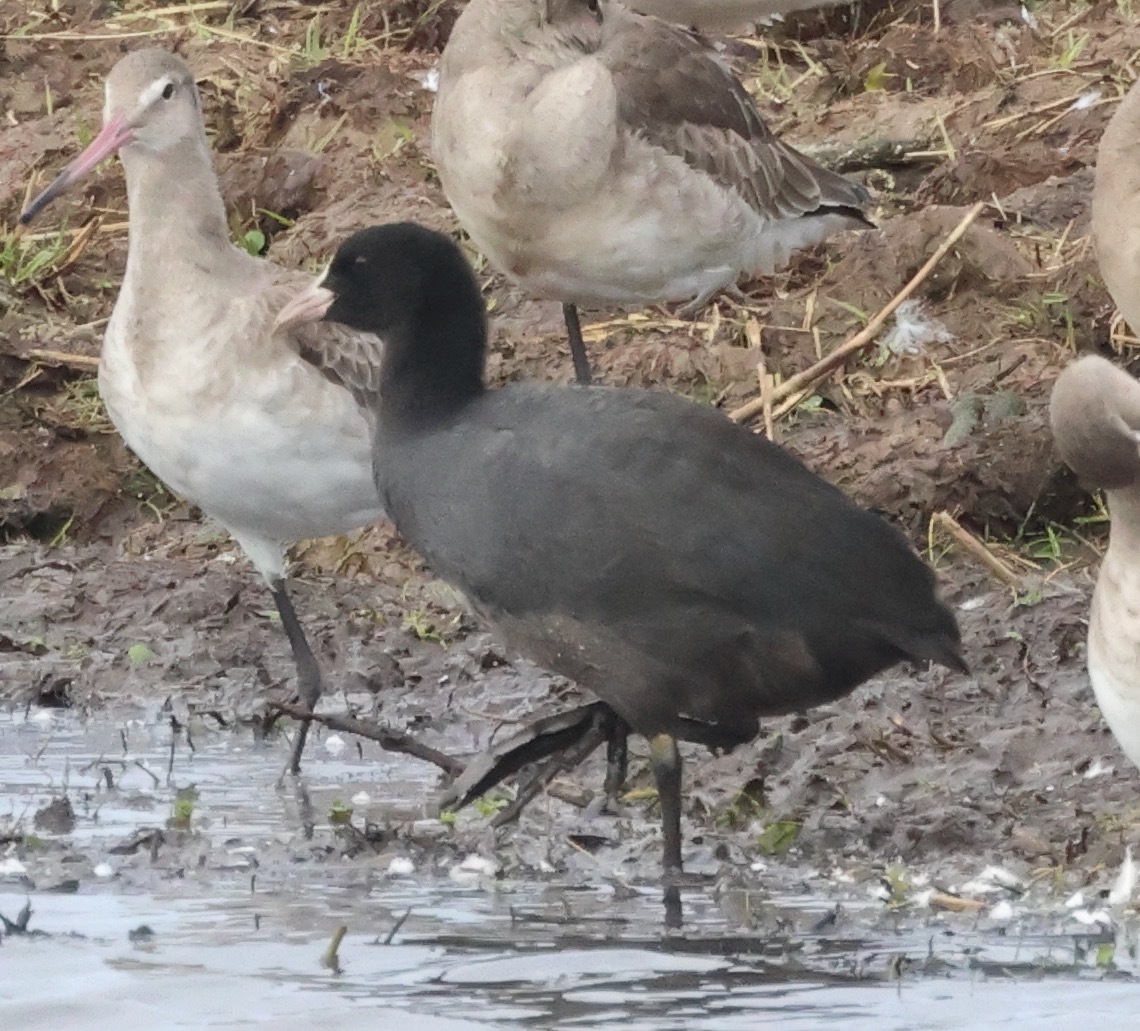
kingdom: Animalia
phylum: Chordata
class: Aves
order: Gruiformes
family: Rallidae
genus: Fulica
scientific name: Fulica atra
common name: Eurasian coot
